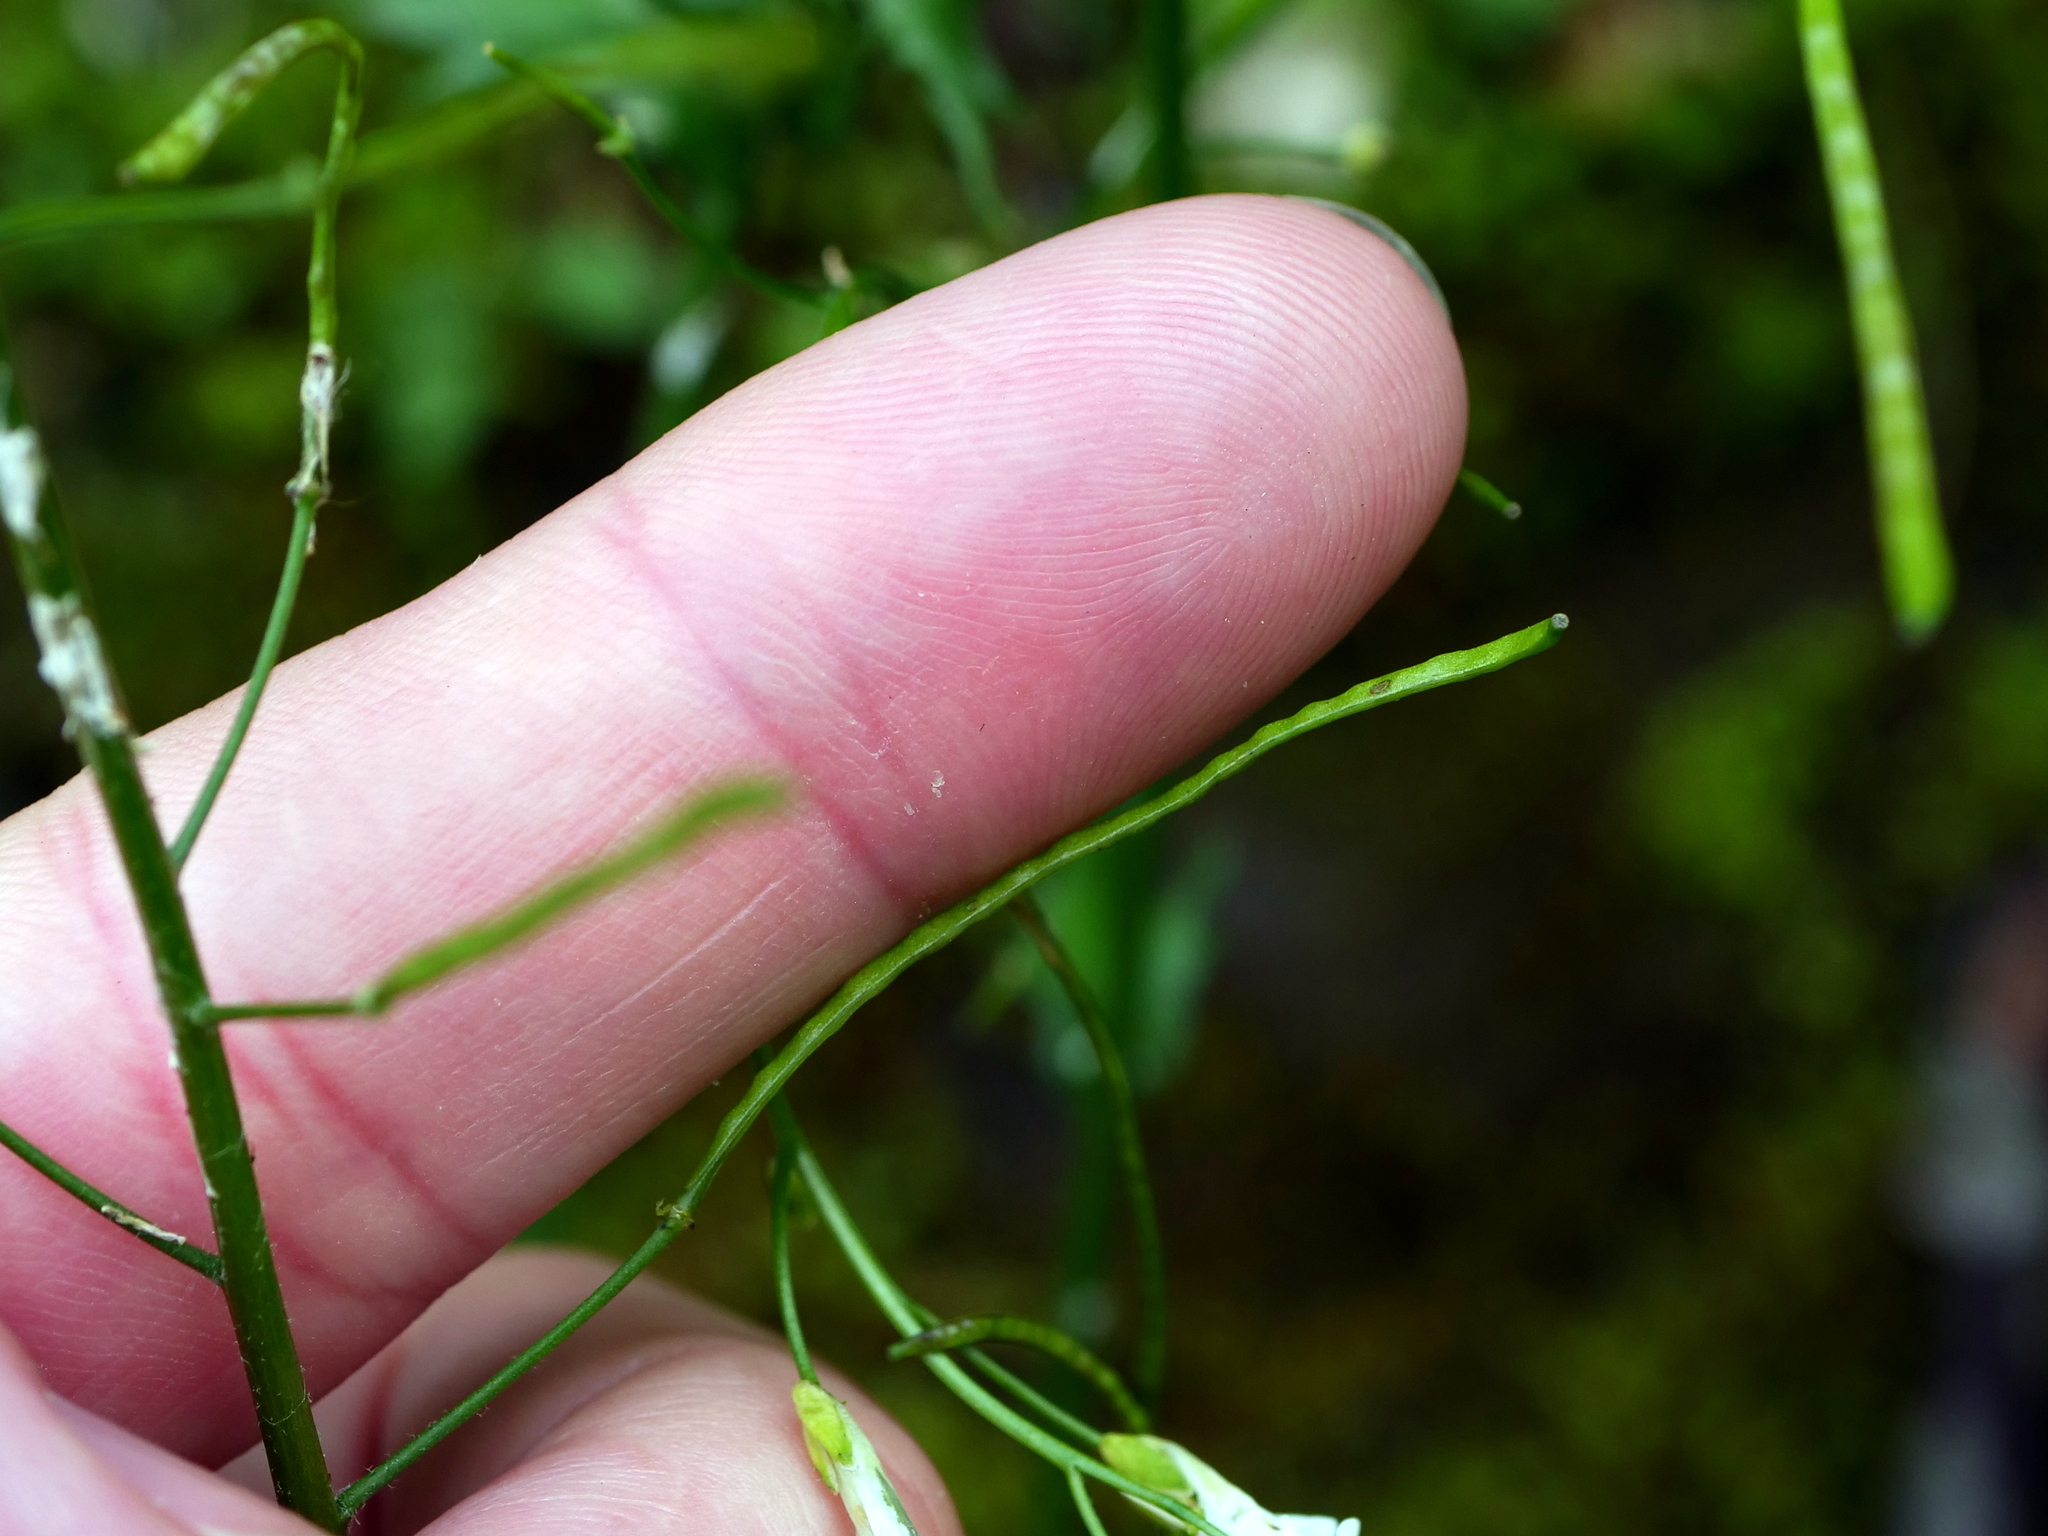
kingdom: Plantae
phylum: Tracheophyta
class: Magnoliopsida
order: Brassicales
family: Brassicaceae
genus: Arabis
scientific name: Arabis alpina
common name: Alpine rock-cress
